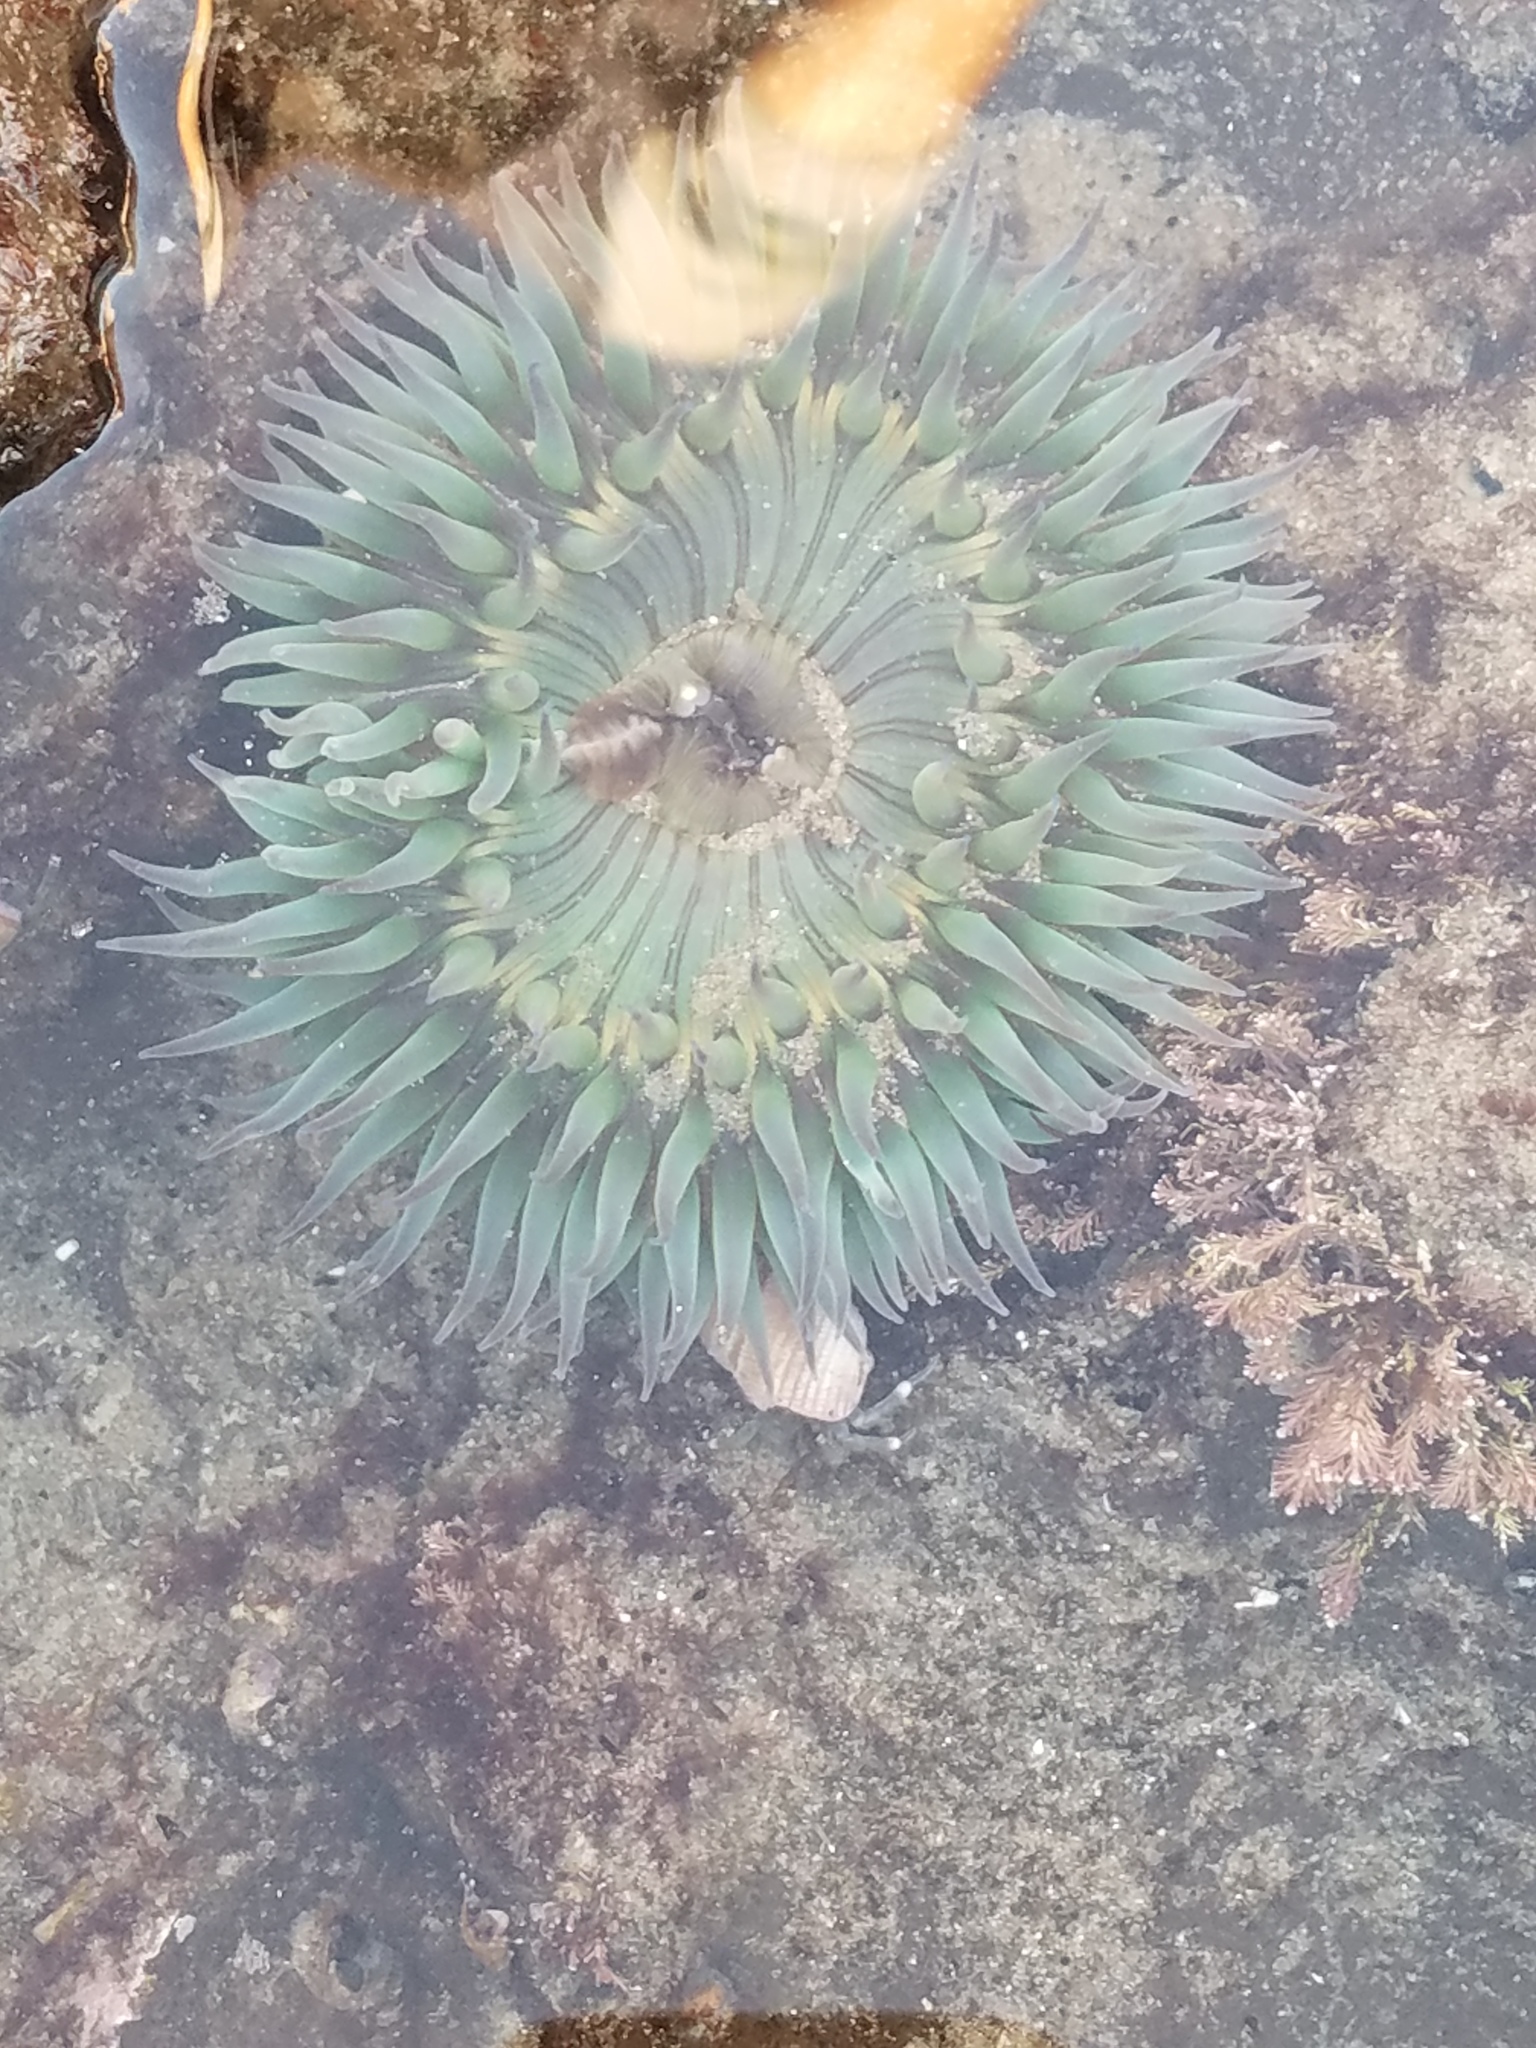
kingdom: Animalia
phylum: Cnidaria
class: Anthozoa
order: Actiniaria
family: Actiniidae
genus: Anthopleura
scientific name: Anthopleura sola
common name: Sun anemone
